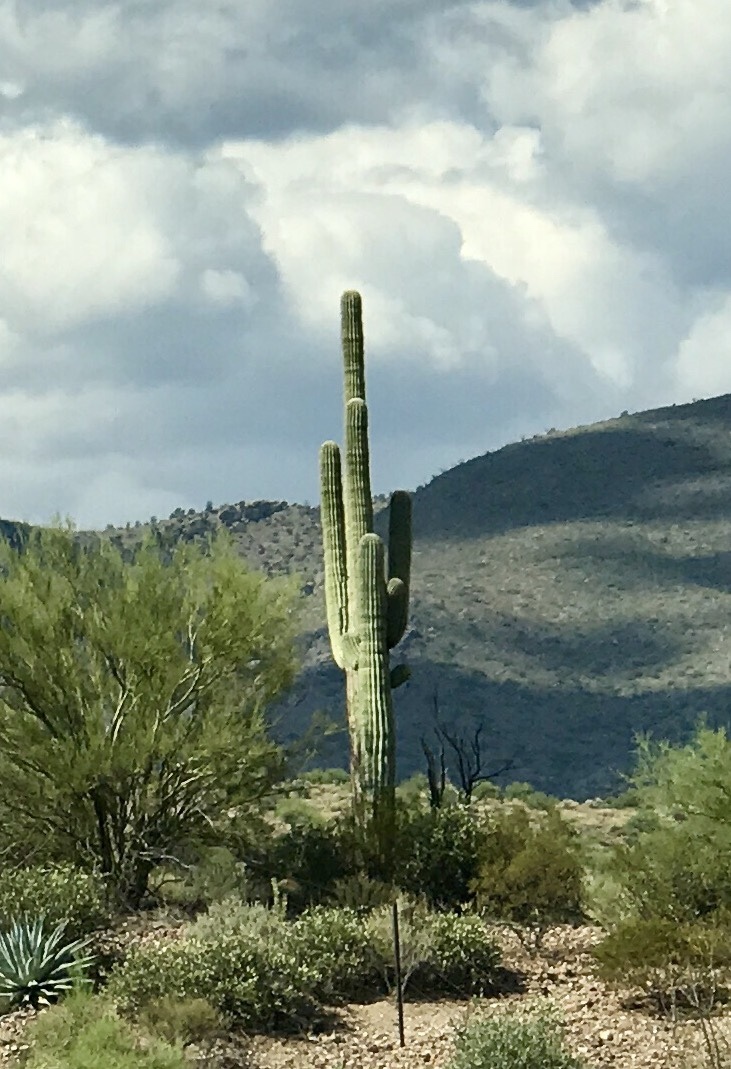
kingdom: Plantae
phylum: Tracheophyta
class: Magnoliopsida
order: Caryophyllales
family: Cactaceae
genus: Carnegiea
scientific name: Carnegiea gigantea
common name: Saguaro
